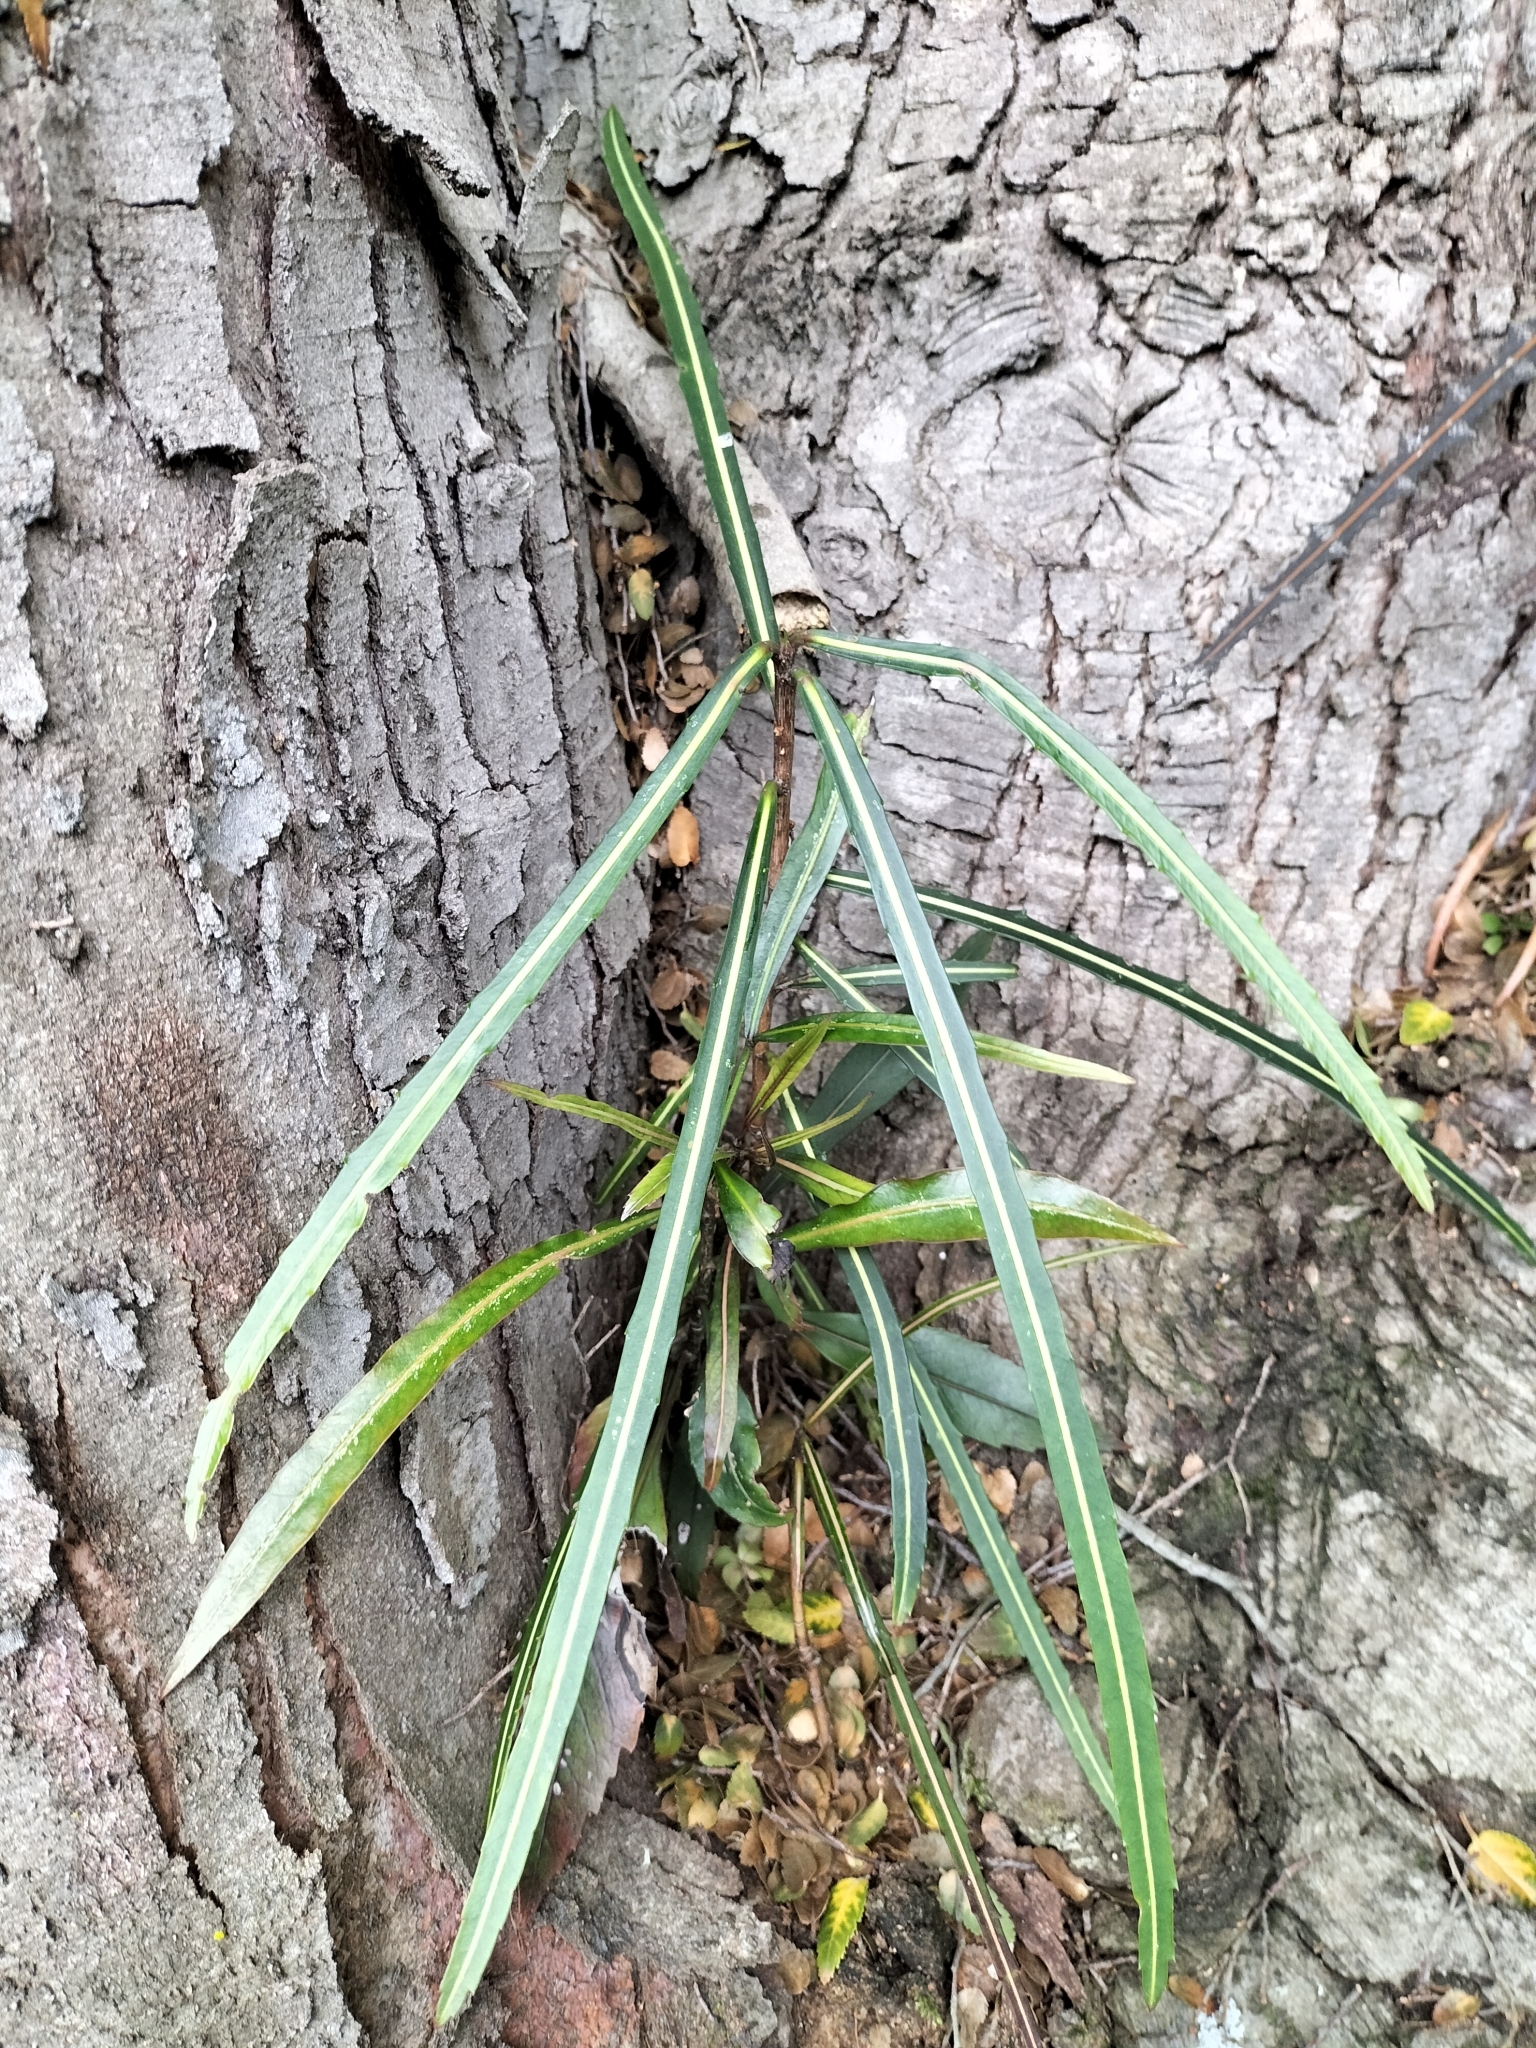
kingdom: Plantae
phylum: Tracheophyta
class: Magnoliopsida
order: Apiales
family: Araliaceae
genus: Pseudopanax
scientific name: Pseudopanax crassifolius
